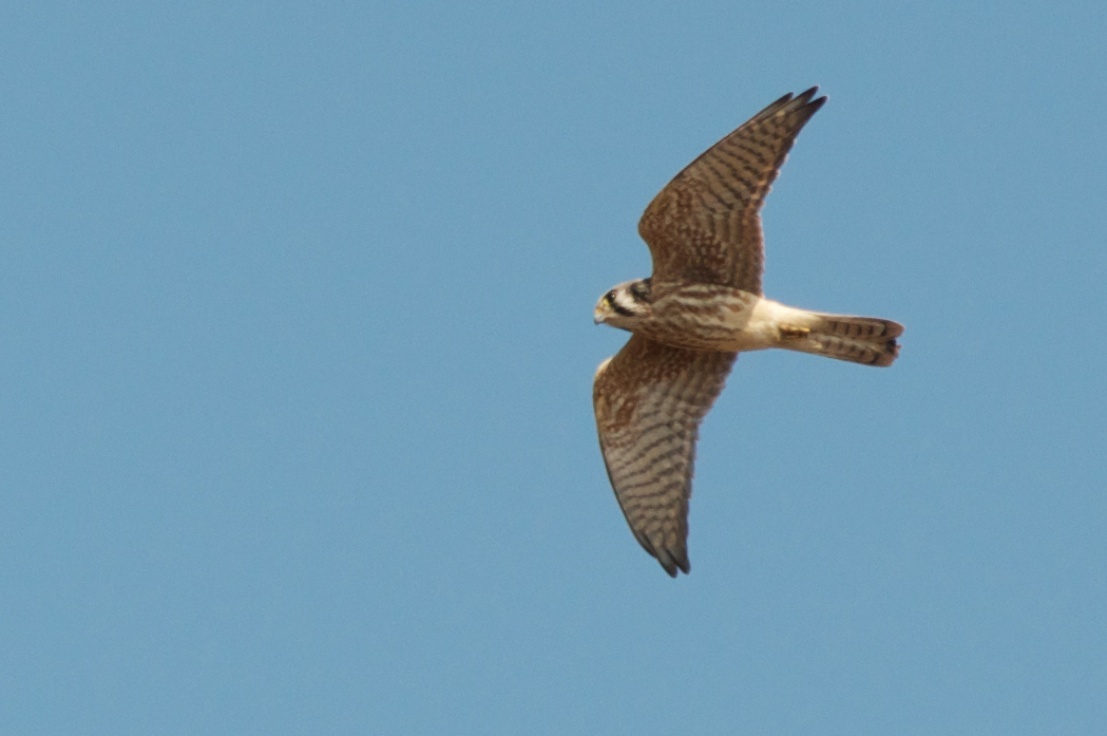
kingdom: Animalia
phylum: Chordata
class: Aves
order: Falconiformes
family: Falconidae
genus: Falco
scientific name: Falco sparverius
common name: American kestrel
